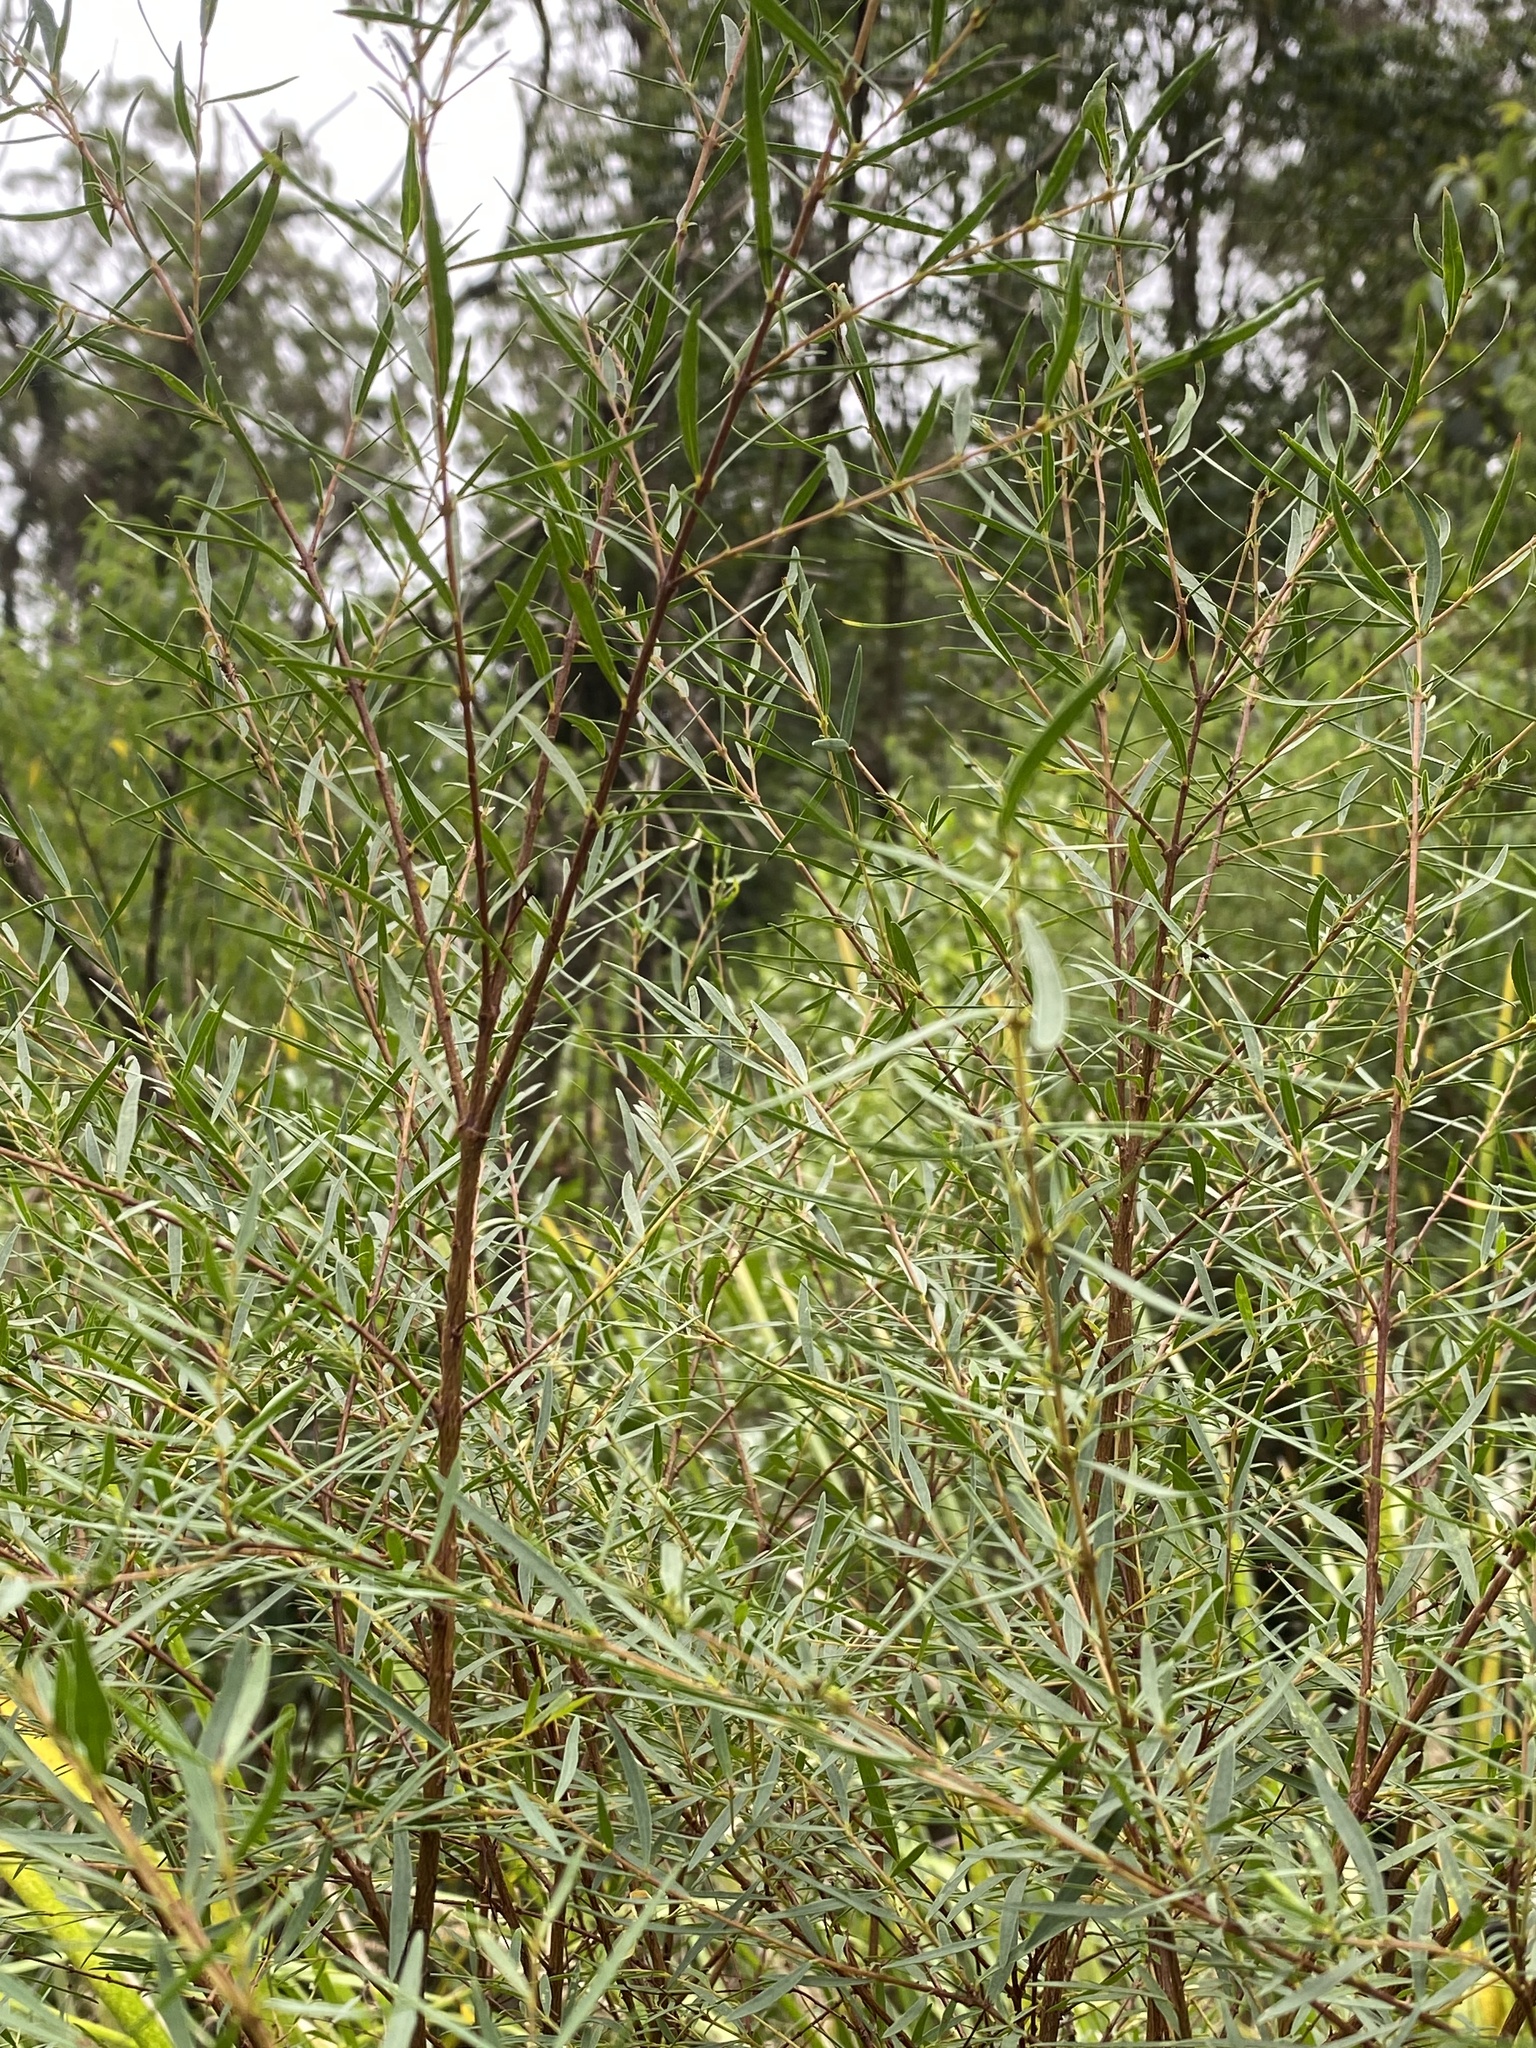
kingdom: Plantae
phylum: Tracheophyta
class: Magnoliopsida
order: Malvales
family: Thymelaeaceae
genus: Pimelea
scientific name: Pimelea neoanglica
